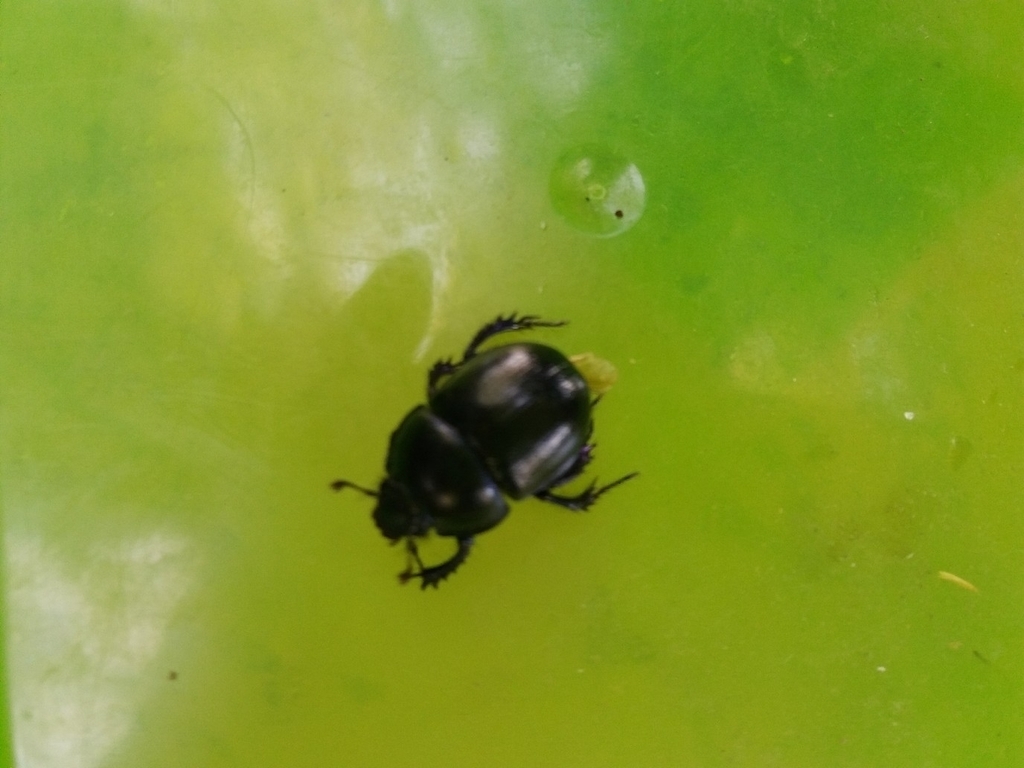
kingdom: Animalia
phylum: Arthropoda
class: Insecta
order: Coleoptera
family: Geotrupidae
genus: Anoplotrupes
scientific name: Anoplotrupes stercorosus
